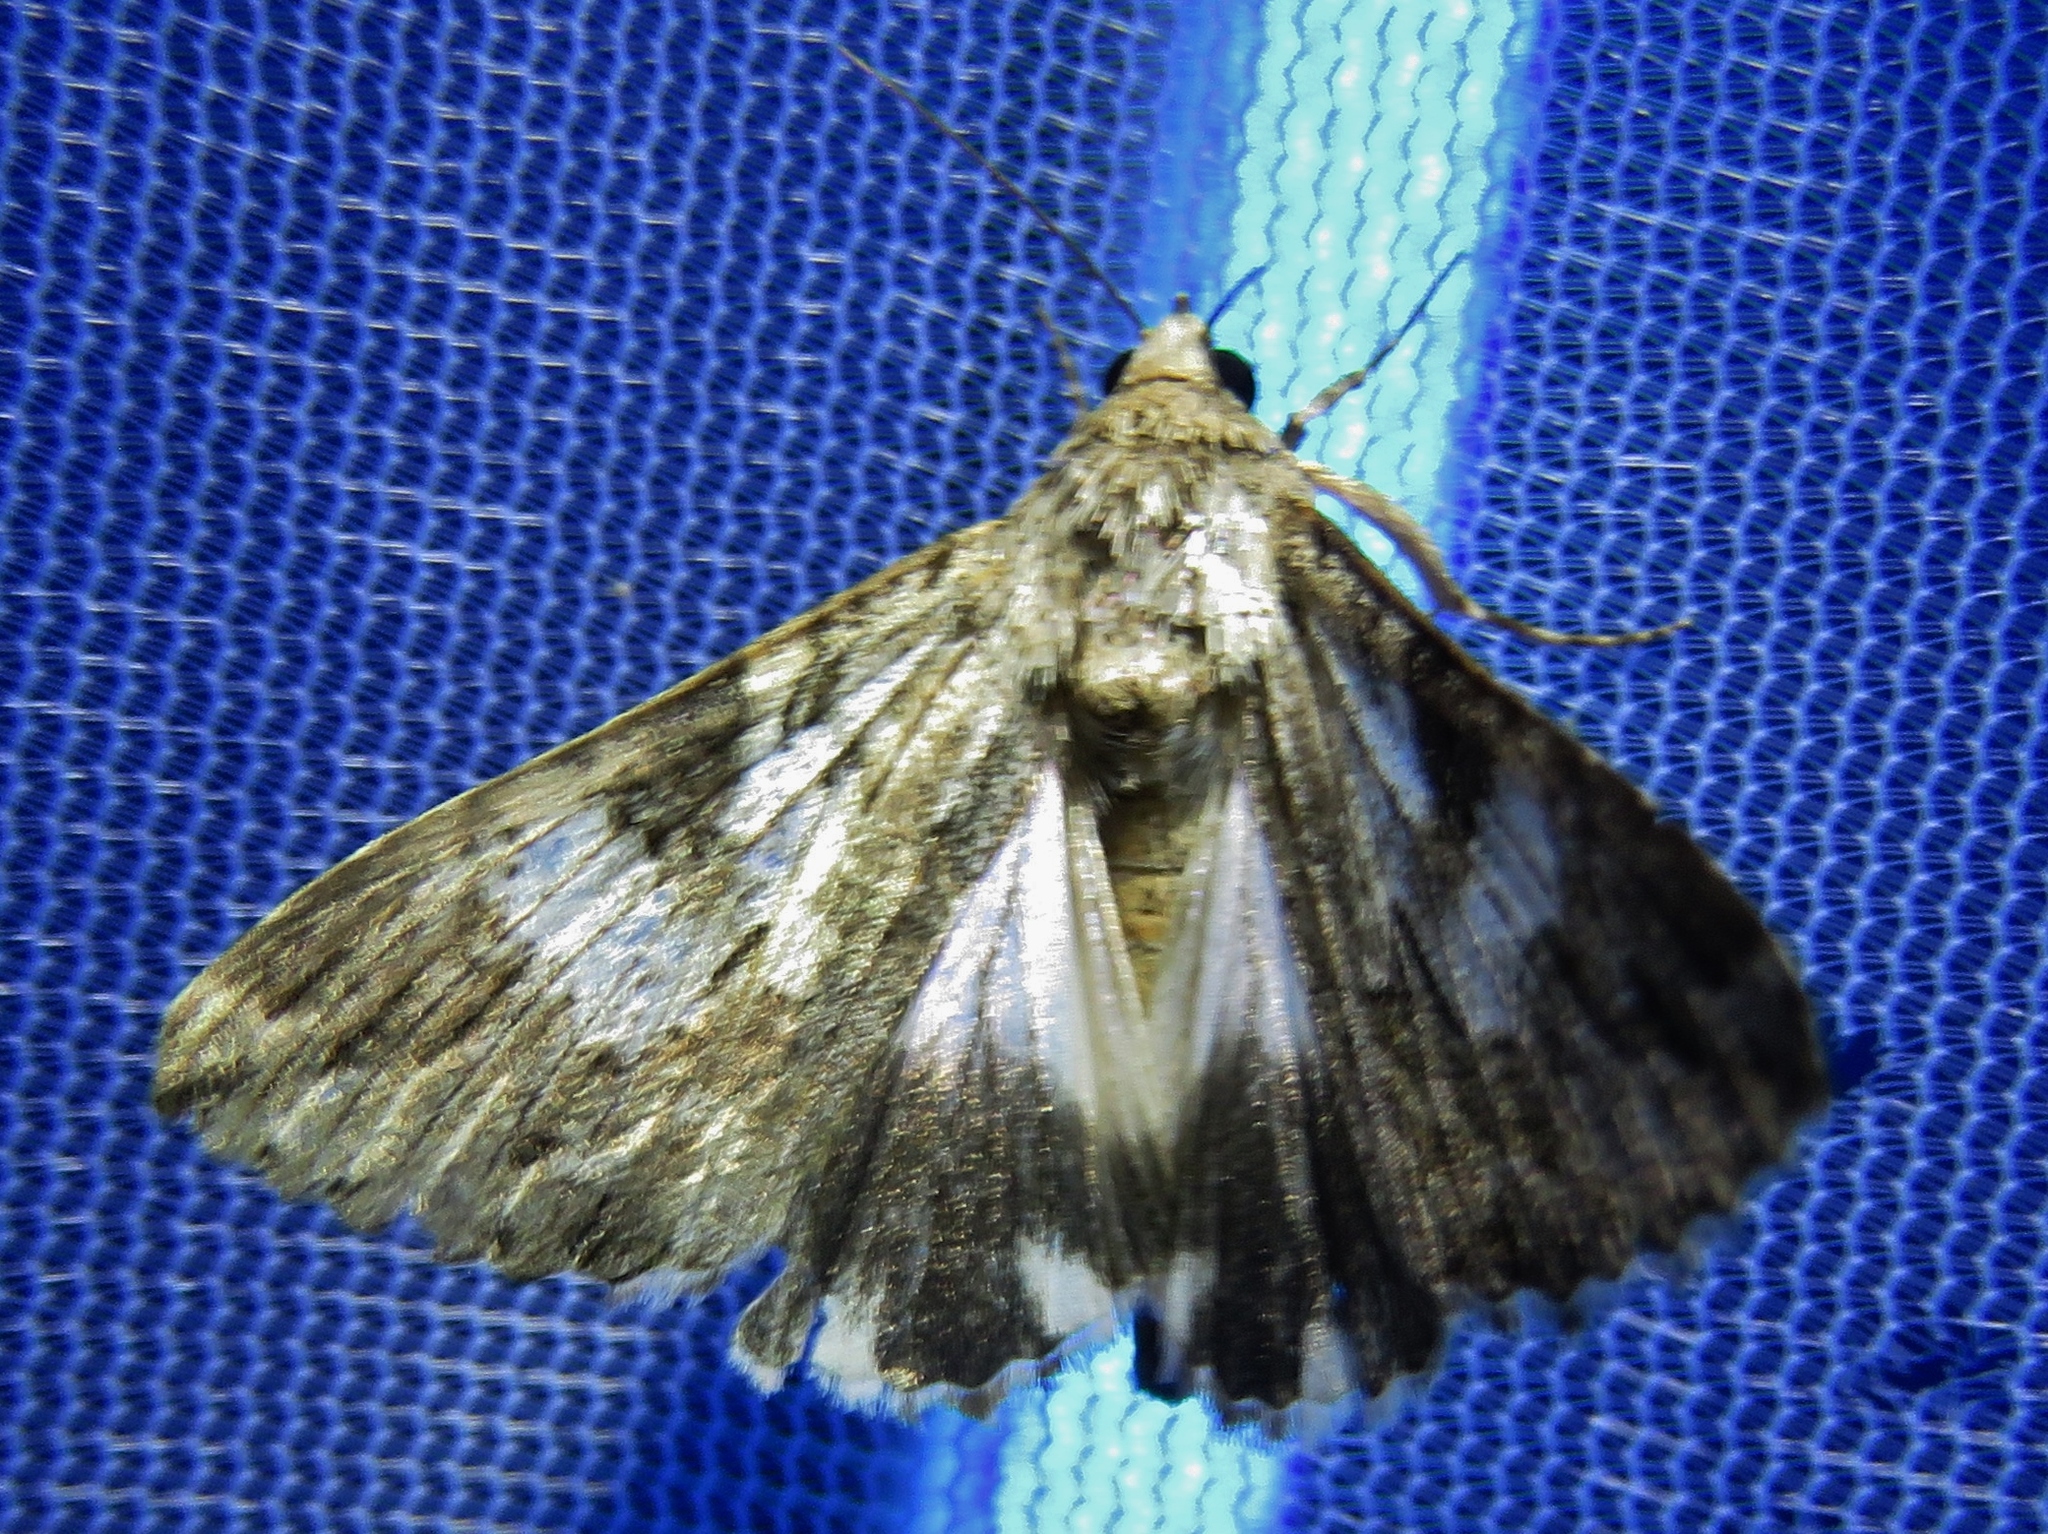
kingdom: Animalia
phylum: Arthropoda
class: Insecta
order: Lepidoptera
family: Erebidae
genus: Melipotis
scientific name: Melipotis jucunda
